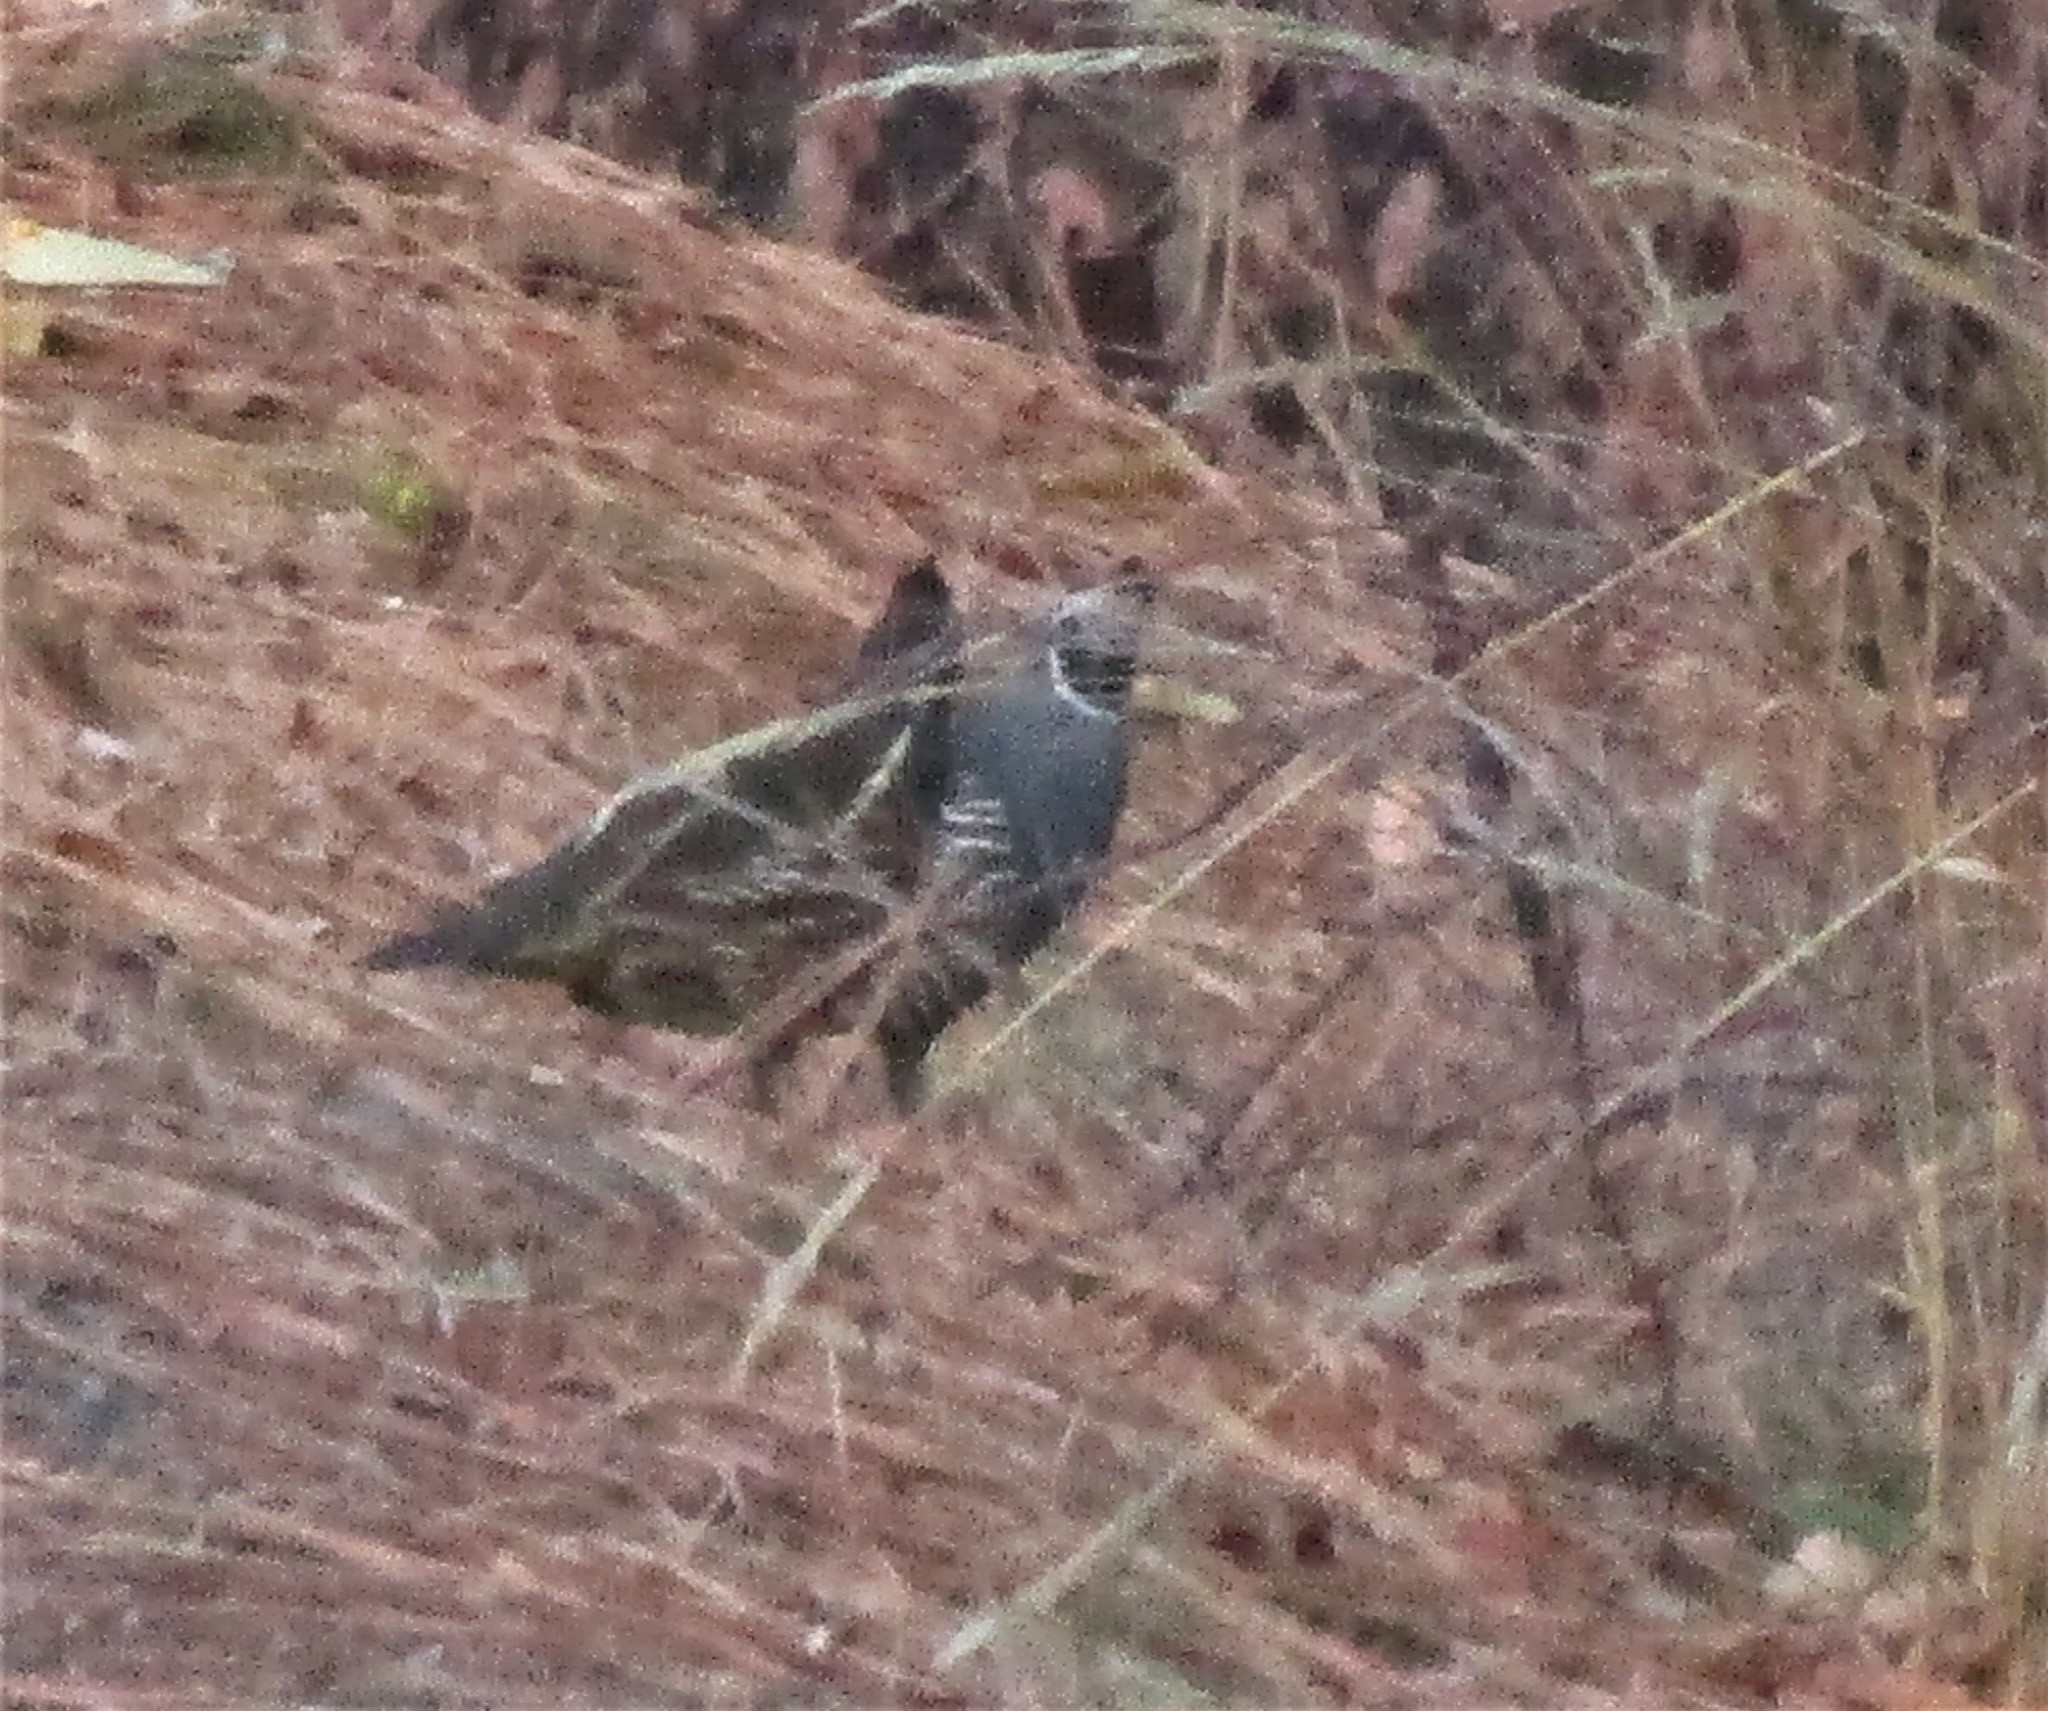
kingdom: Animalia
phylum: Chordata
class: Aves
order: Galliformes
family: Odontophoridae
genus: Callipepla
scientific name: Callipepla californica
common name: California quail
